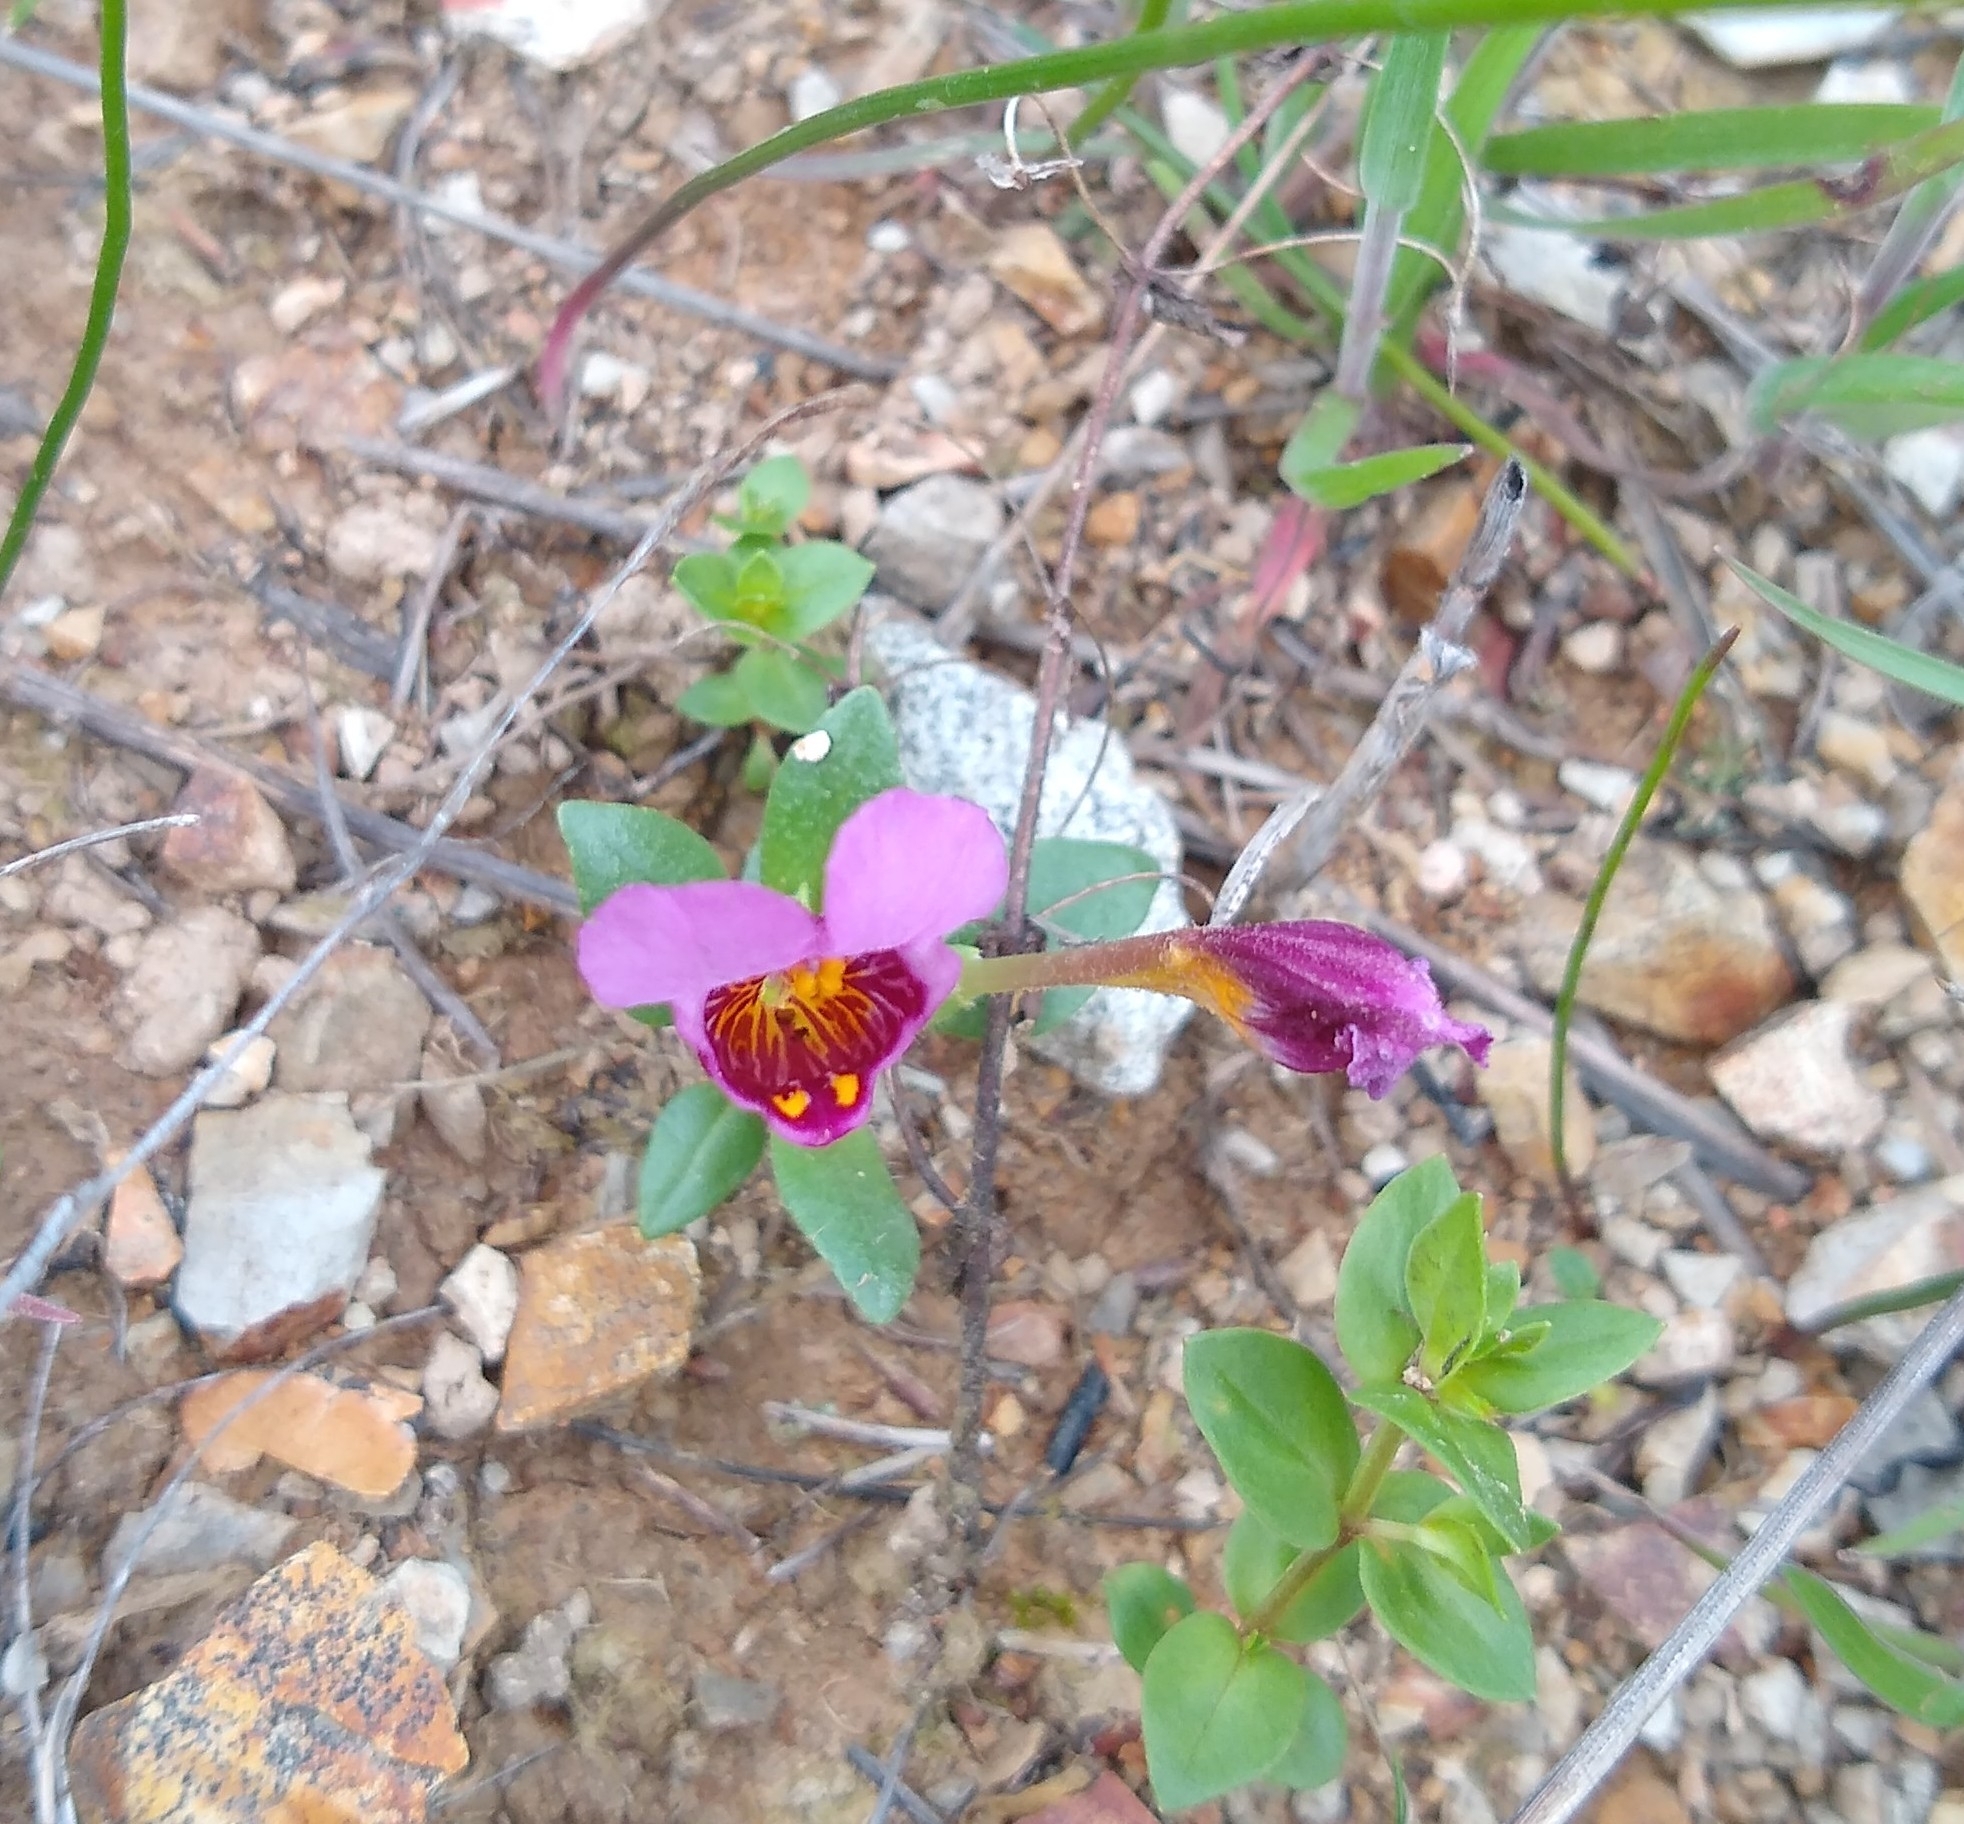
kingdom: Plantae
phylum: Tracheophyta
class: Magnoliopsida
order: Lamiales
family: Phrymaceae
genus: Diplacus
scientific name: Diplacus douglasii
